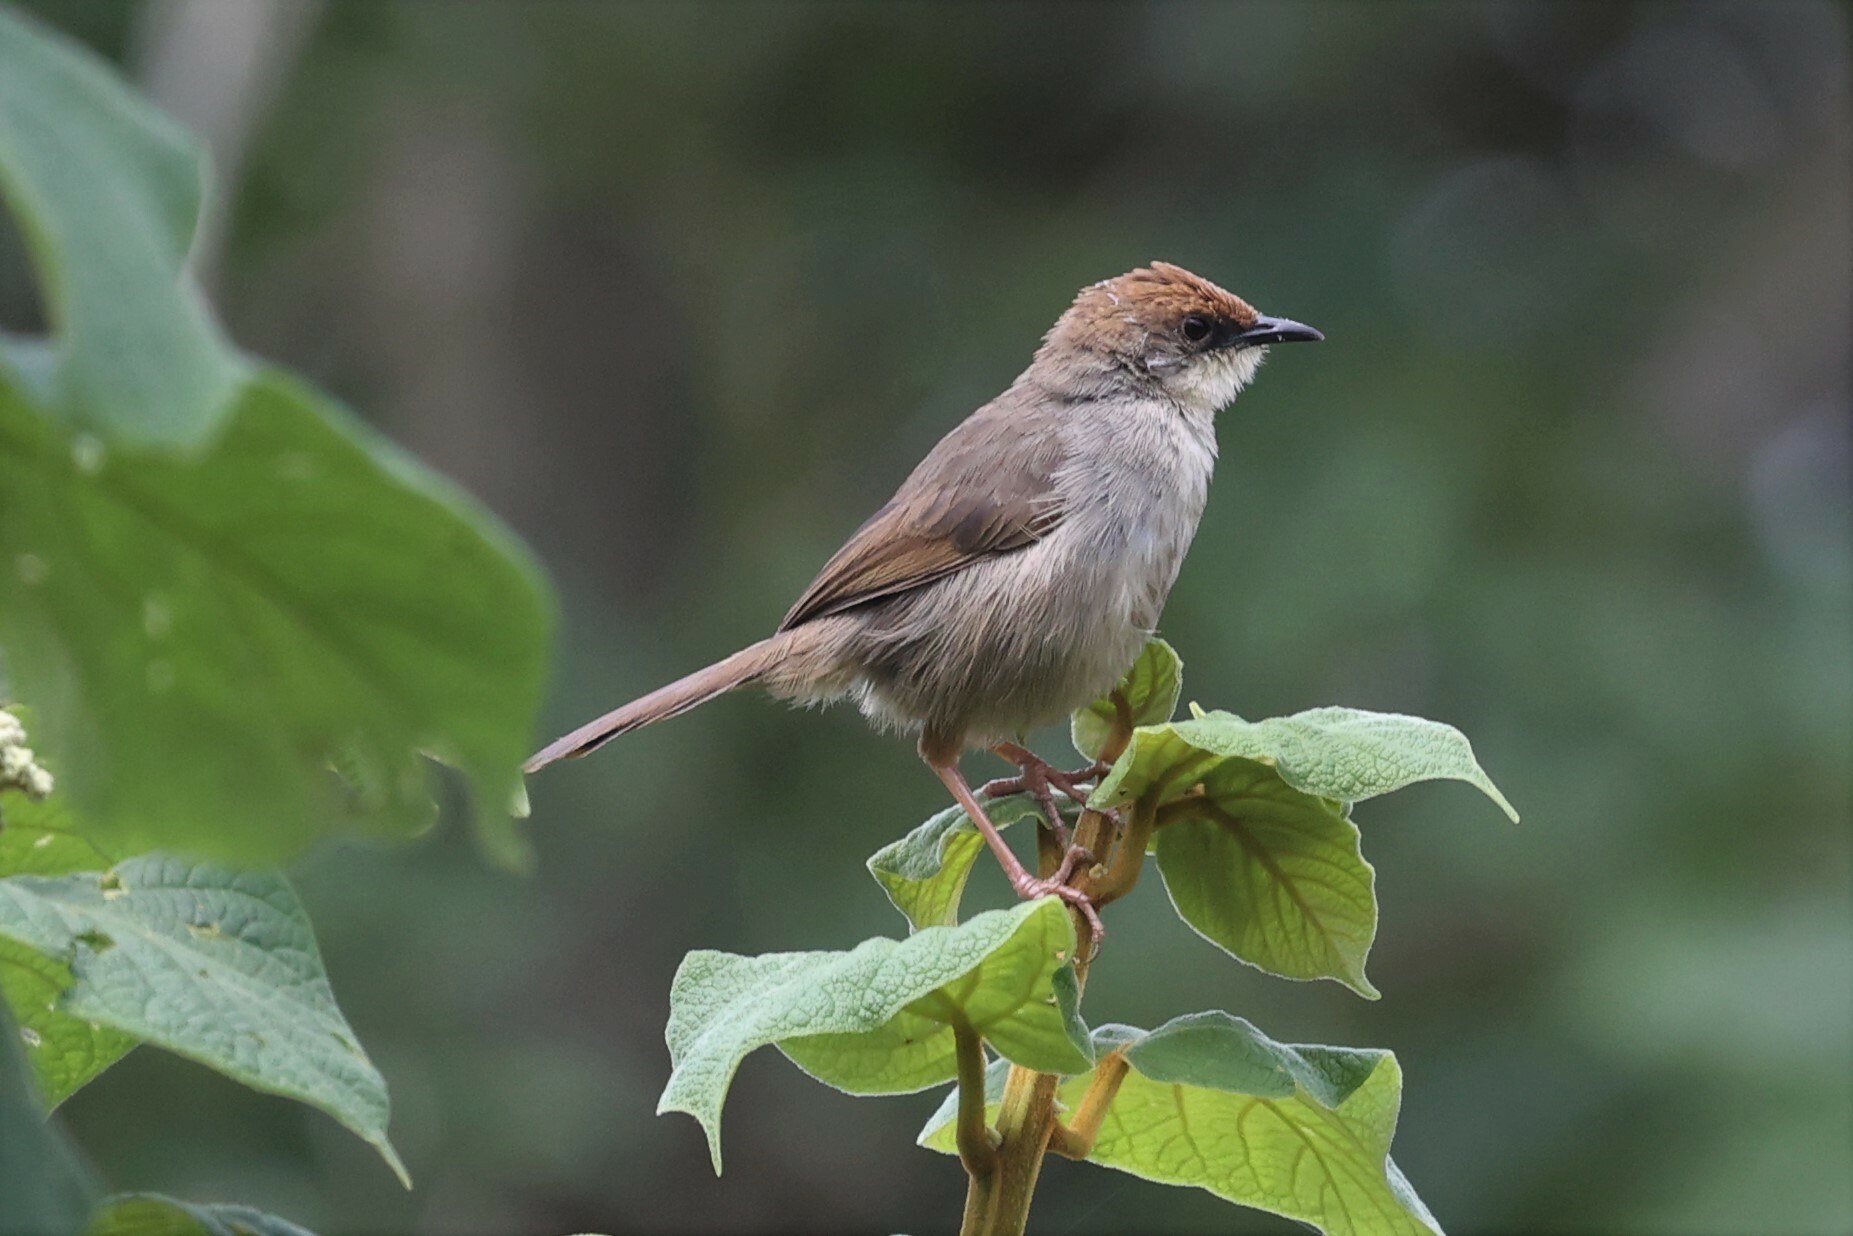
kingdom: Animalia
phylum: Chordata
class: Aves
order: Passeriformes
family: Cisticolidae
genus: Cisticola
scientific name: Cisticola chubbi
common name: Chubb's cisticola
